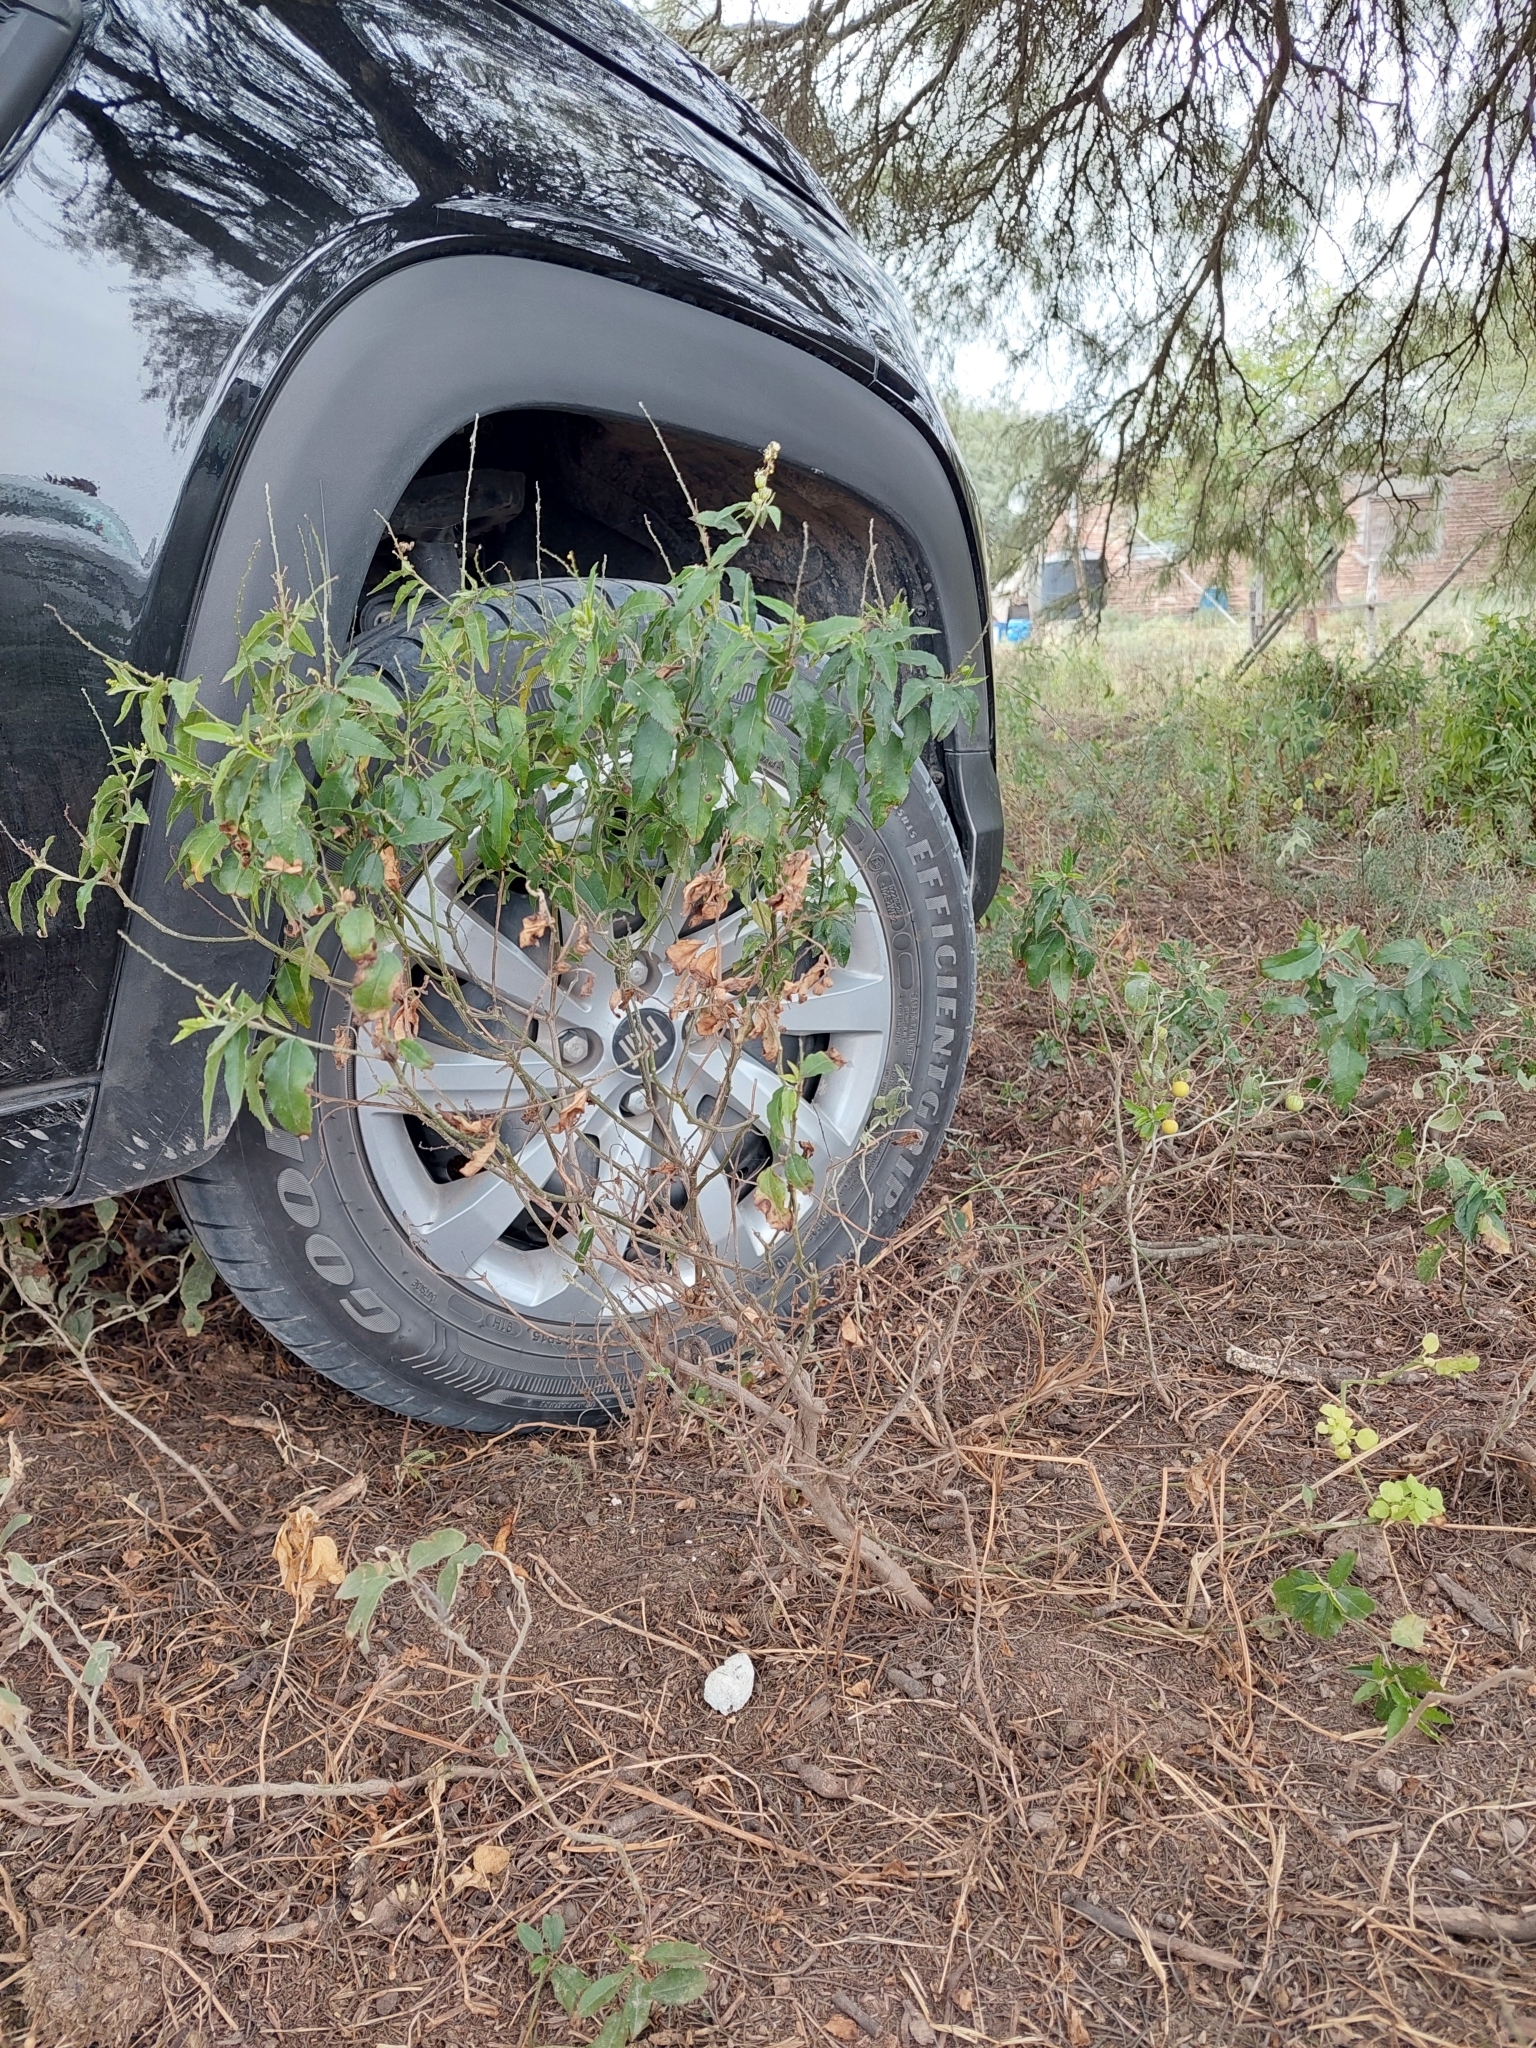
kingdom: Plantae
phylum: Tracheophyta
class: Magnoliopsida
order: Malpighiales
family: Euphorbiaceae
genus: Croton
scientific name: Croton bonplandianus
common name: Bonpland's croton
